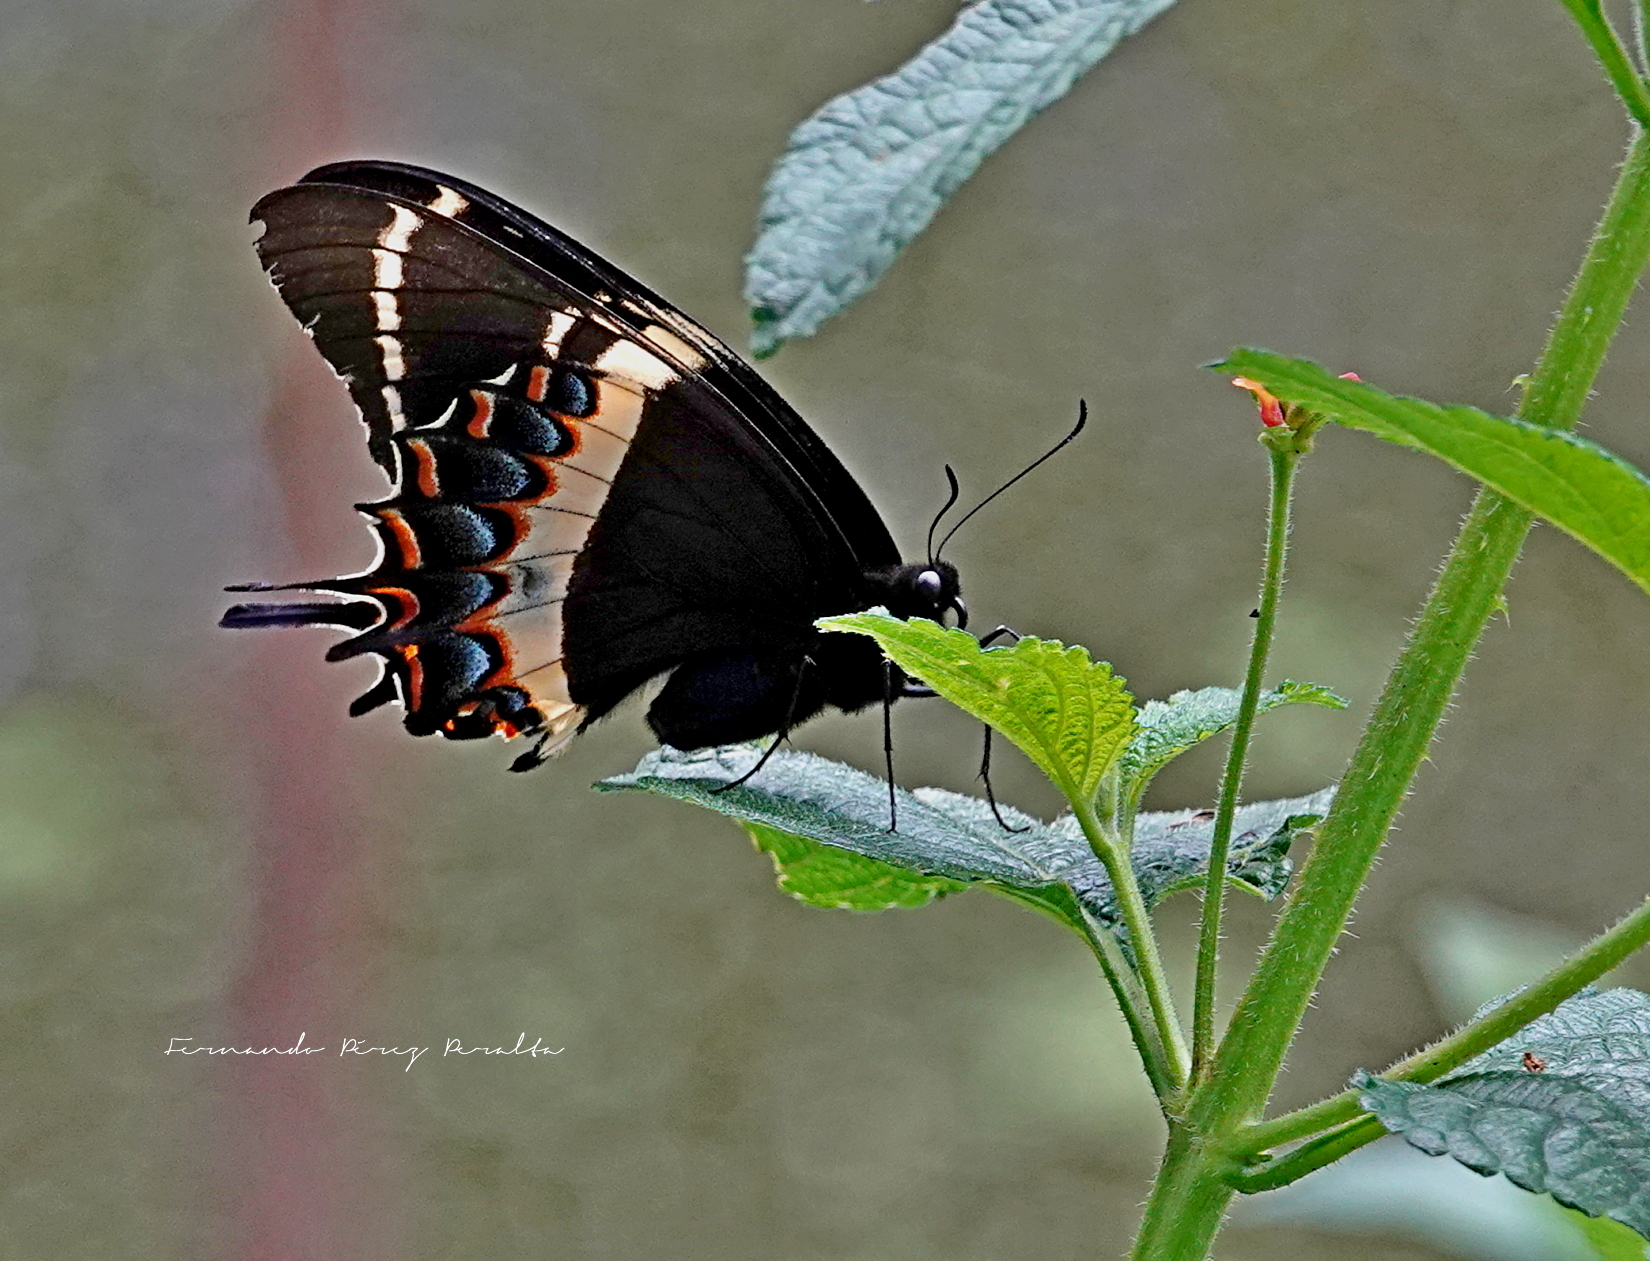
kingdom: Animalia
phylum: Arthropoda
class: Insecta
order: Lepidoptera
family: Papilionidae
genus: Papilio
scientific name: Papilio garamas
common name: Magnificent swallowtail
